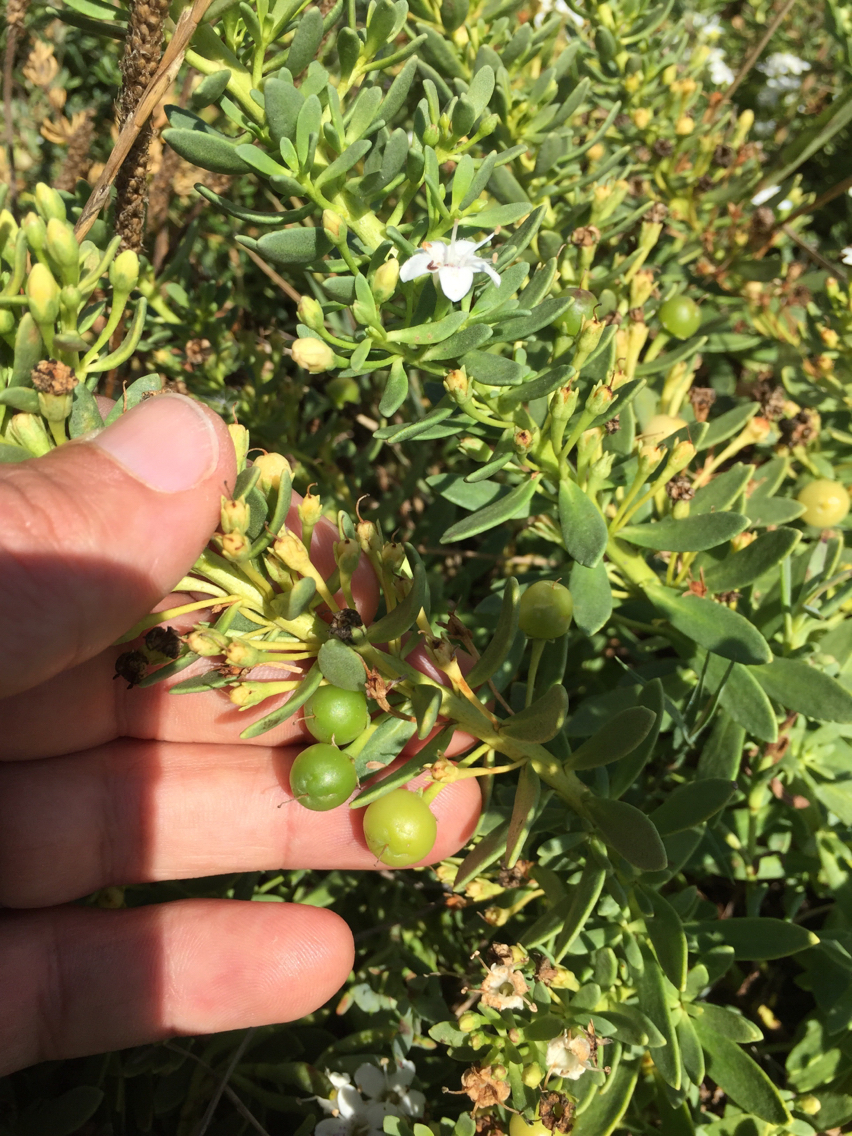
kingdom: Plantae
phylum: Tracheophyta
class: Magnoliopsida
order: Lamiales
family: Scrophulariaceae
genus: Myoporum
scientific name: Myoporum parvifolium
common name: Dwarf native-myrtle
